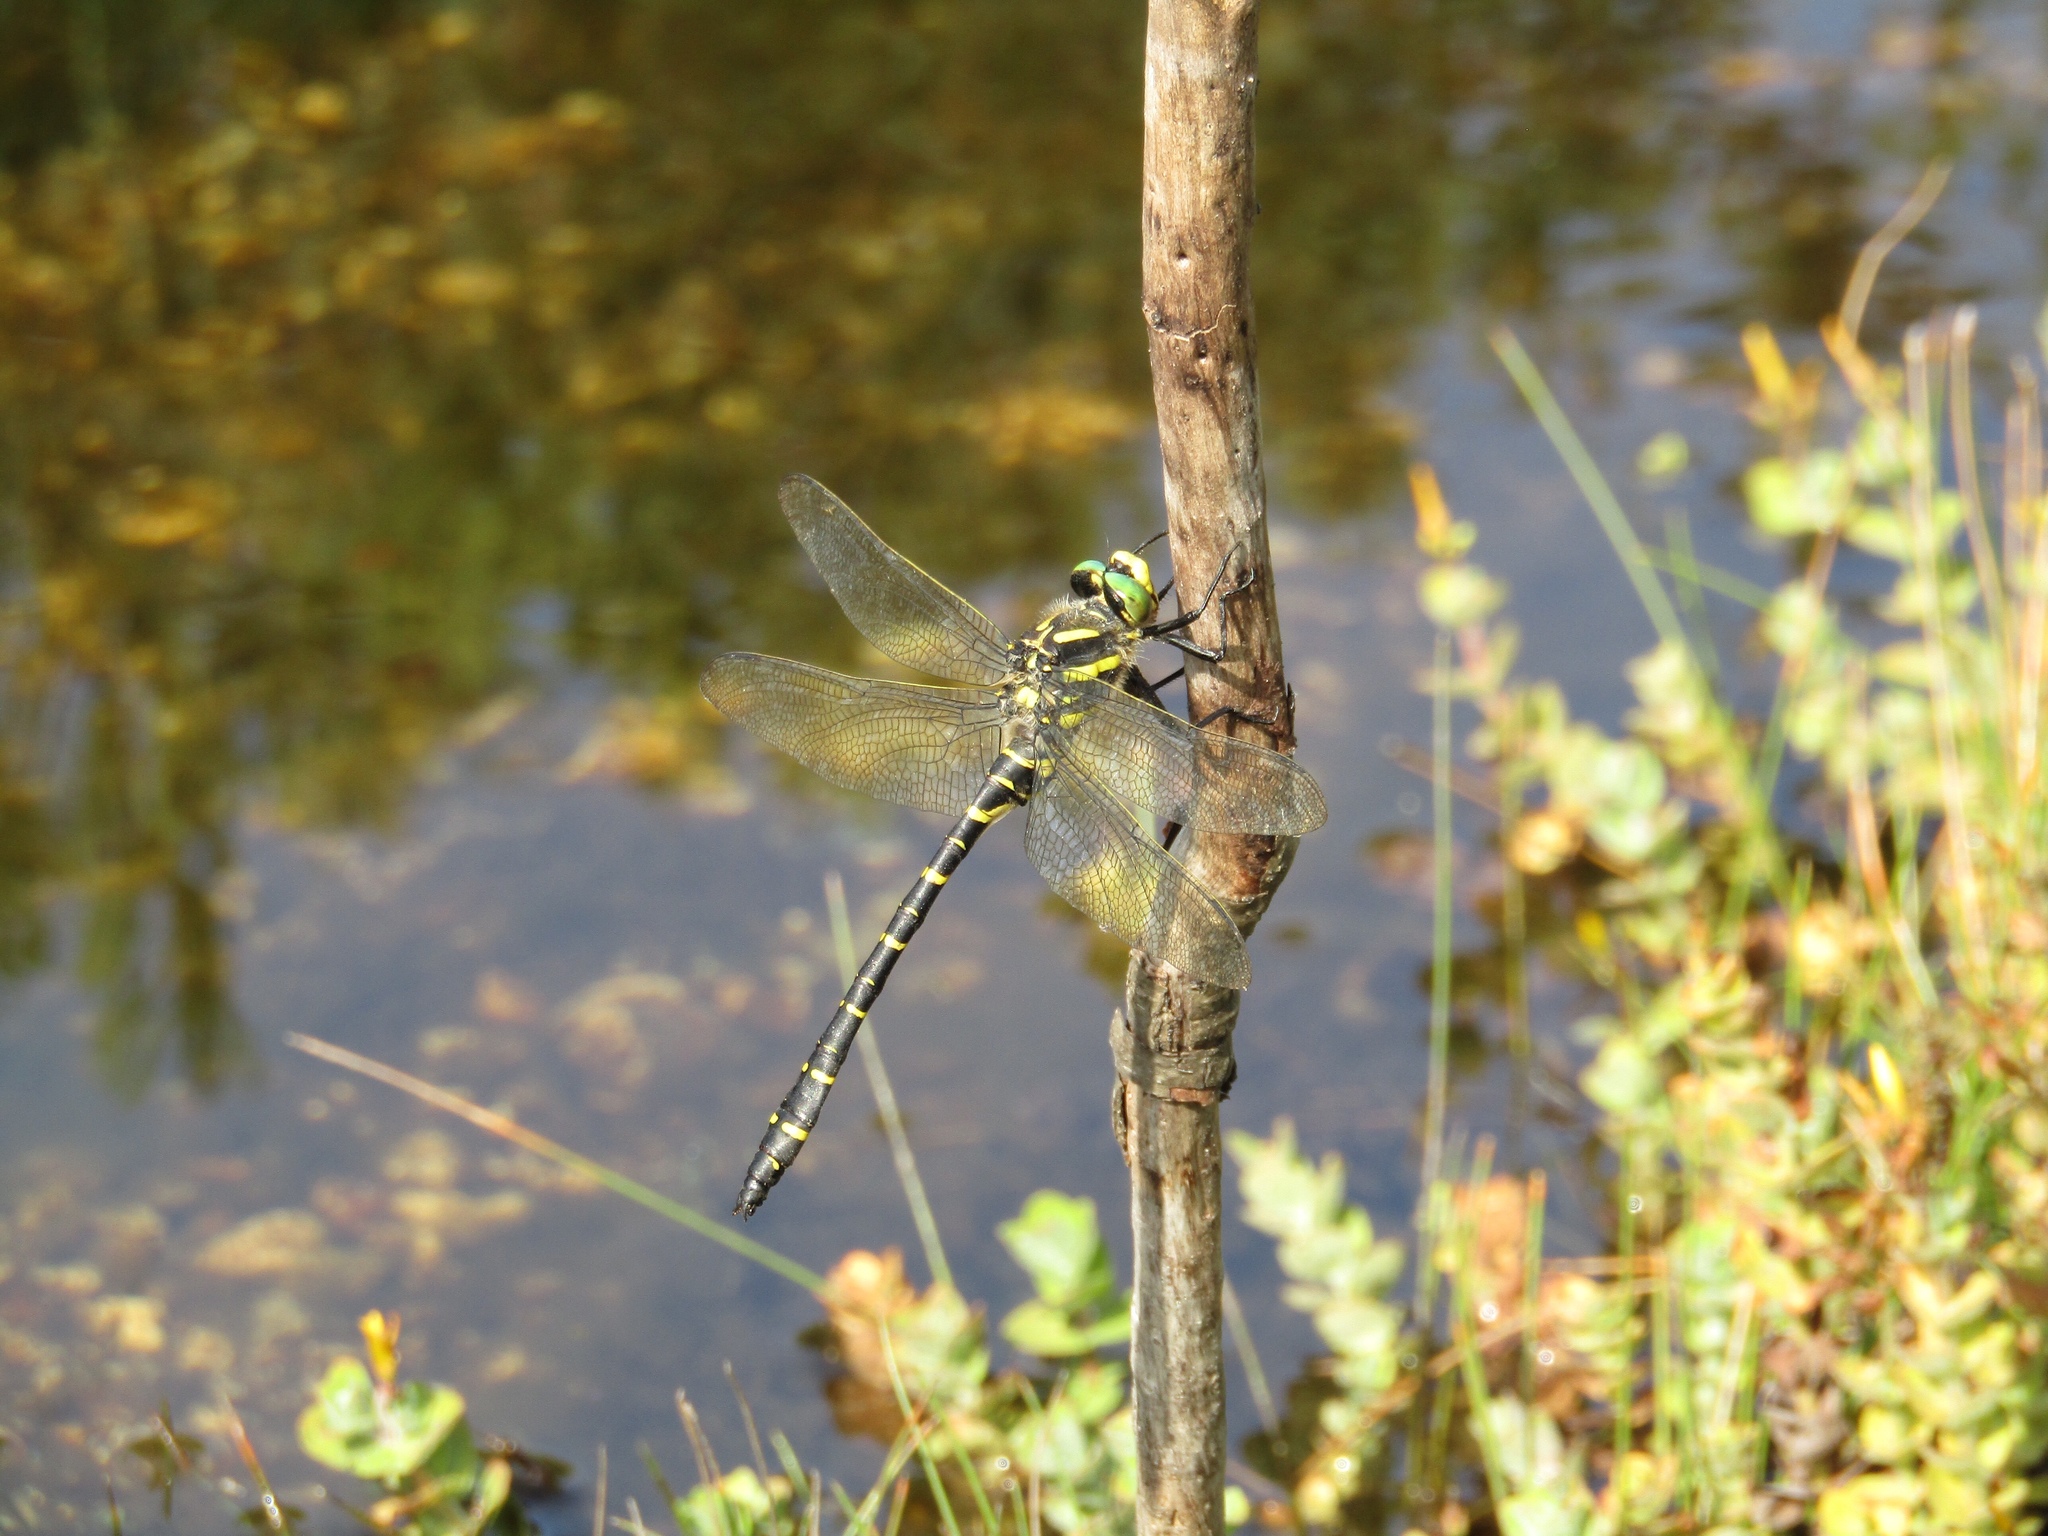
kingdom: Animalia
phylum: Arthropoda
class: Insecta
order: Odonata
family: Cordulegastridae
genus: Cordulegaster
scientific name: Cordulegaster boltonii
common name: Golden-ringed dragonfly
